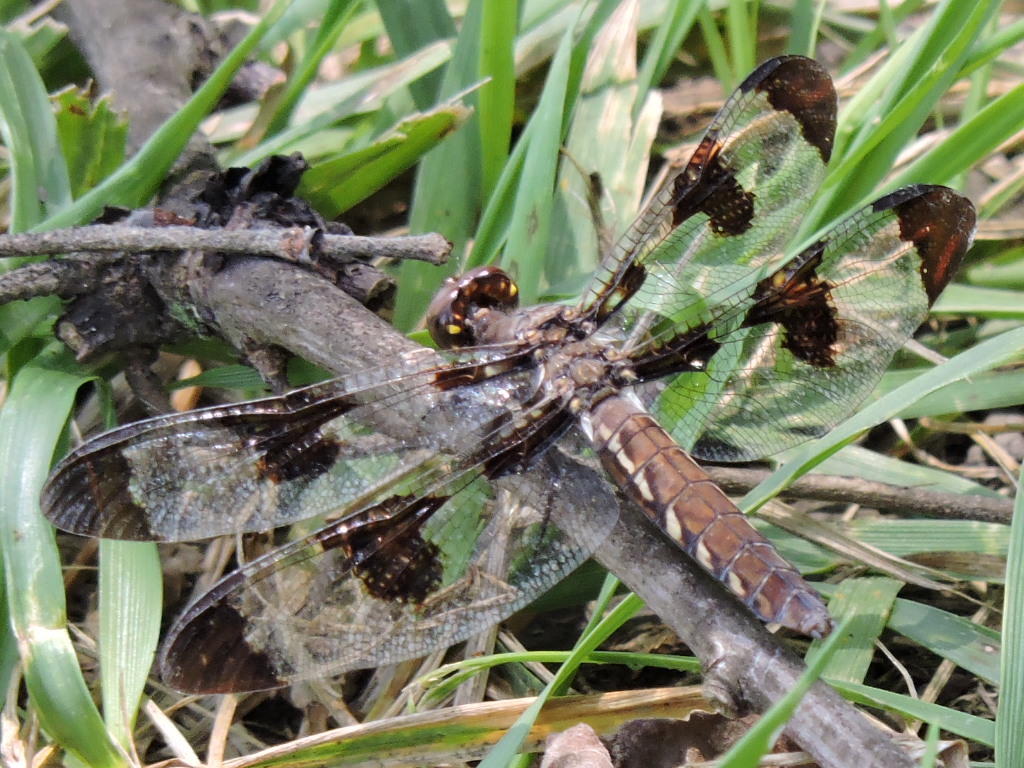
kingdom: Animalia
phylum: Arthropoda
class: Insecta
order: Odonata
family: Libellulidae
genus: Plathemis
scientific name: Plathemis lydia
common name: Common whitetail
